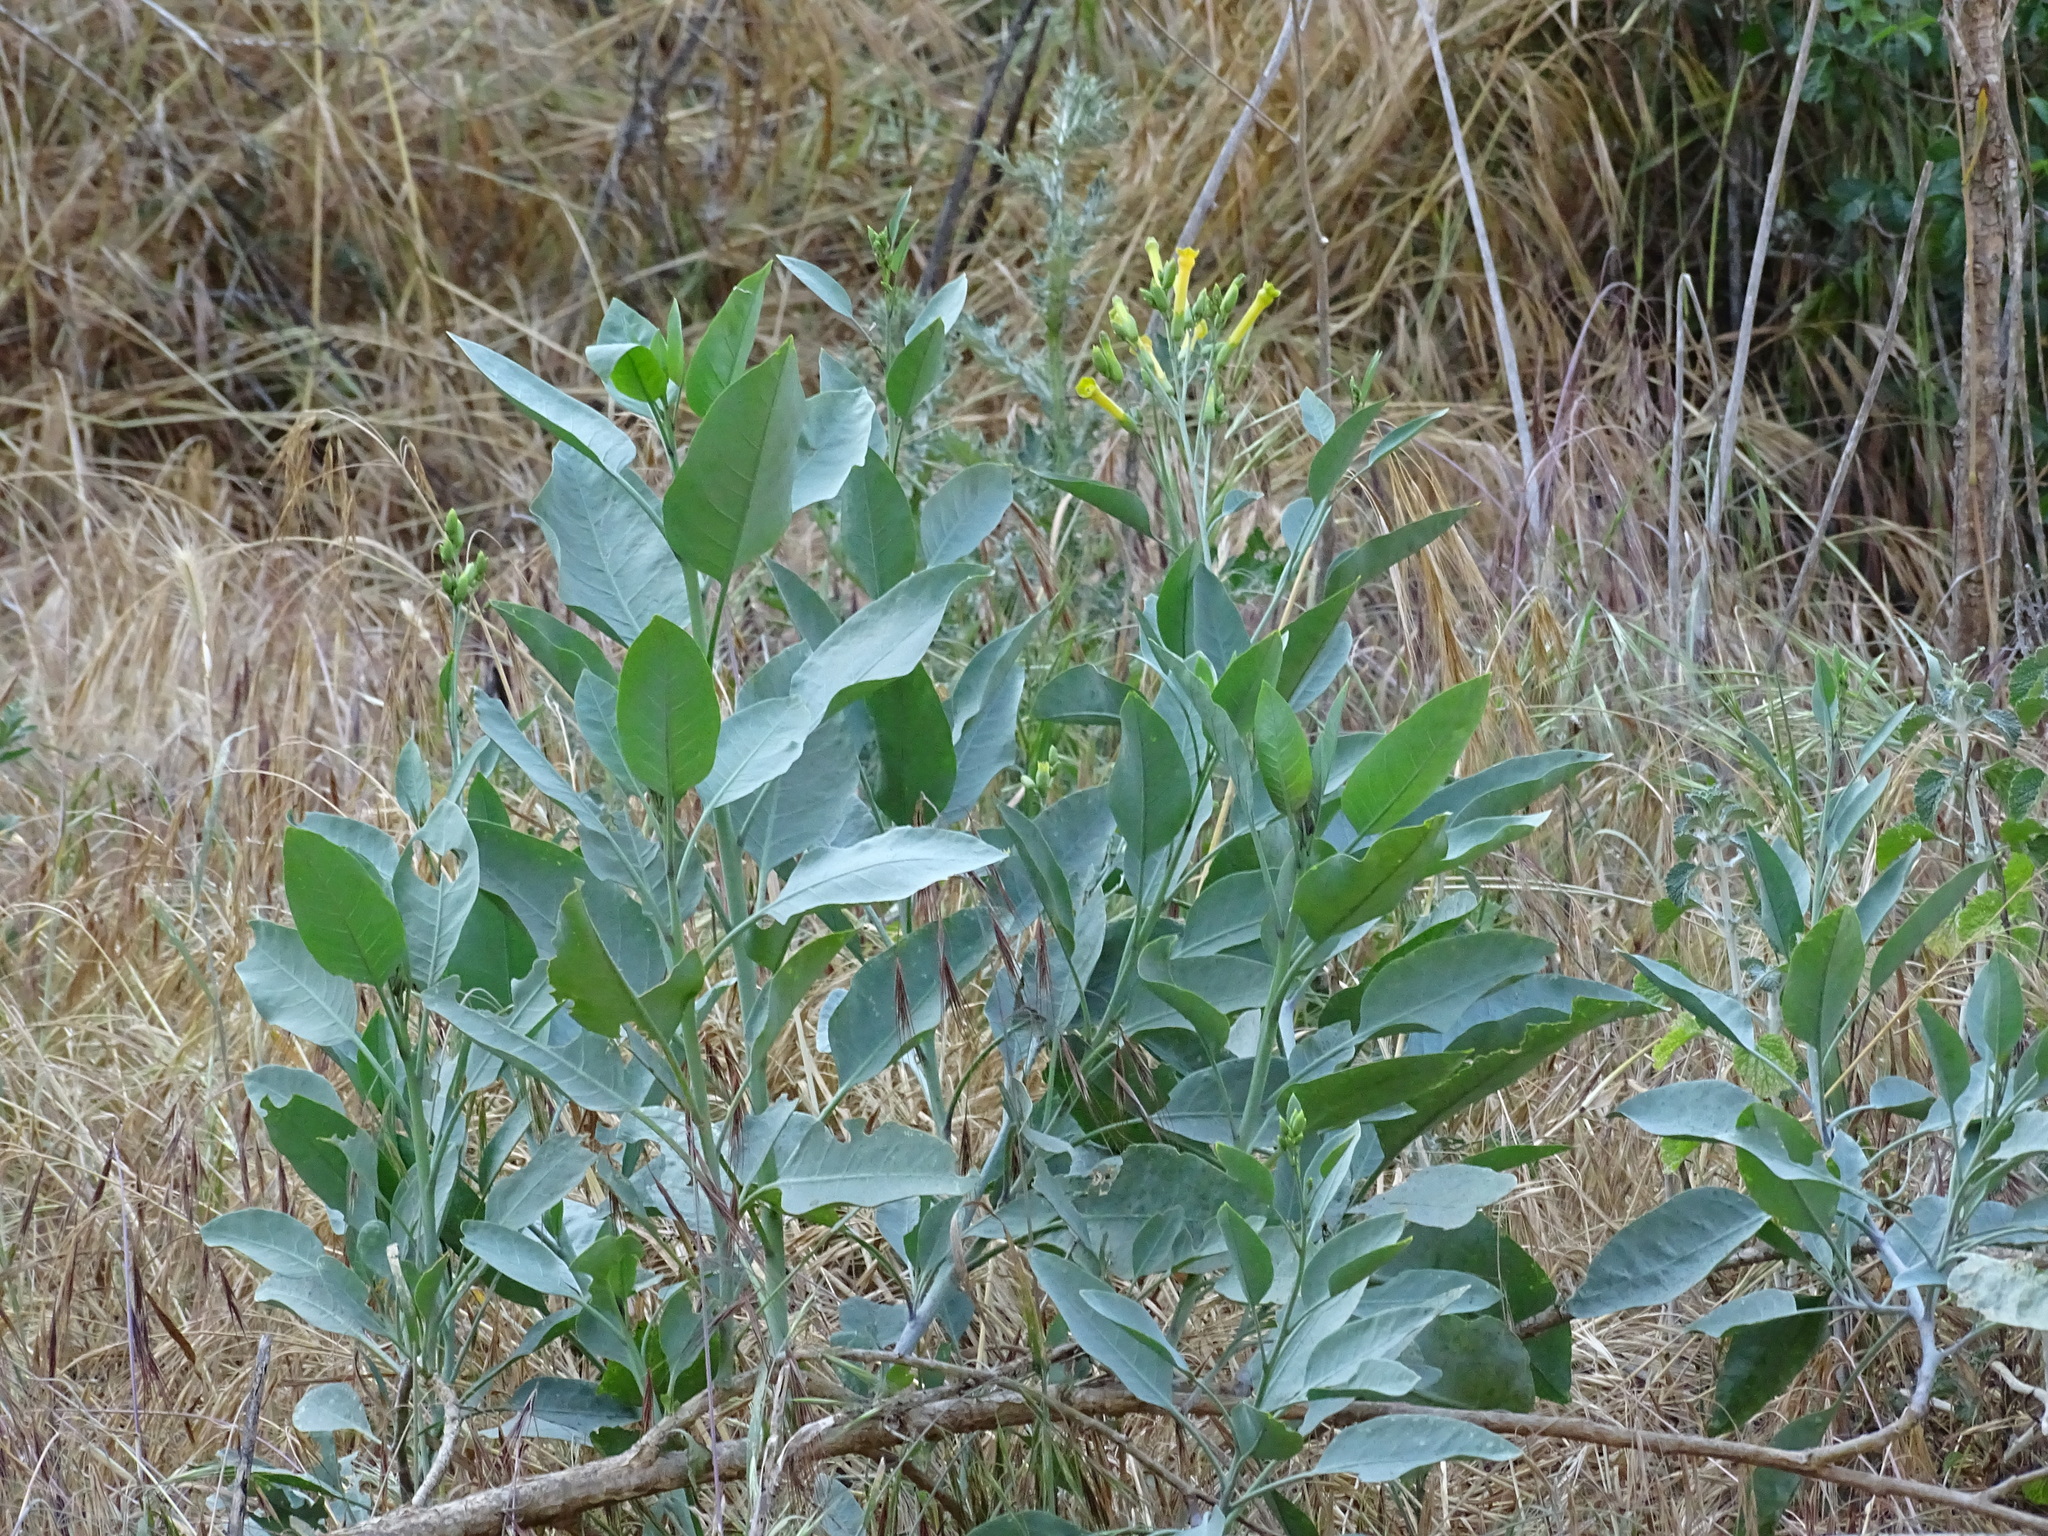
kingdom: Plantae
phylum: Tracheophyta
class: Magnoliopsida
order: Solanales
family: Solanaceae
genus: Nicotiana
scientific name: Nicotiana glauca
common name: Tree tobacco
